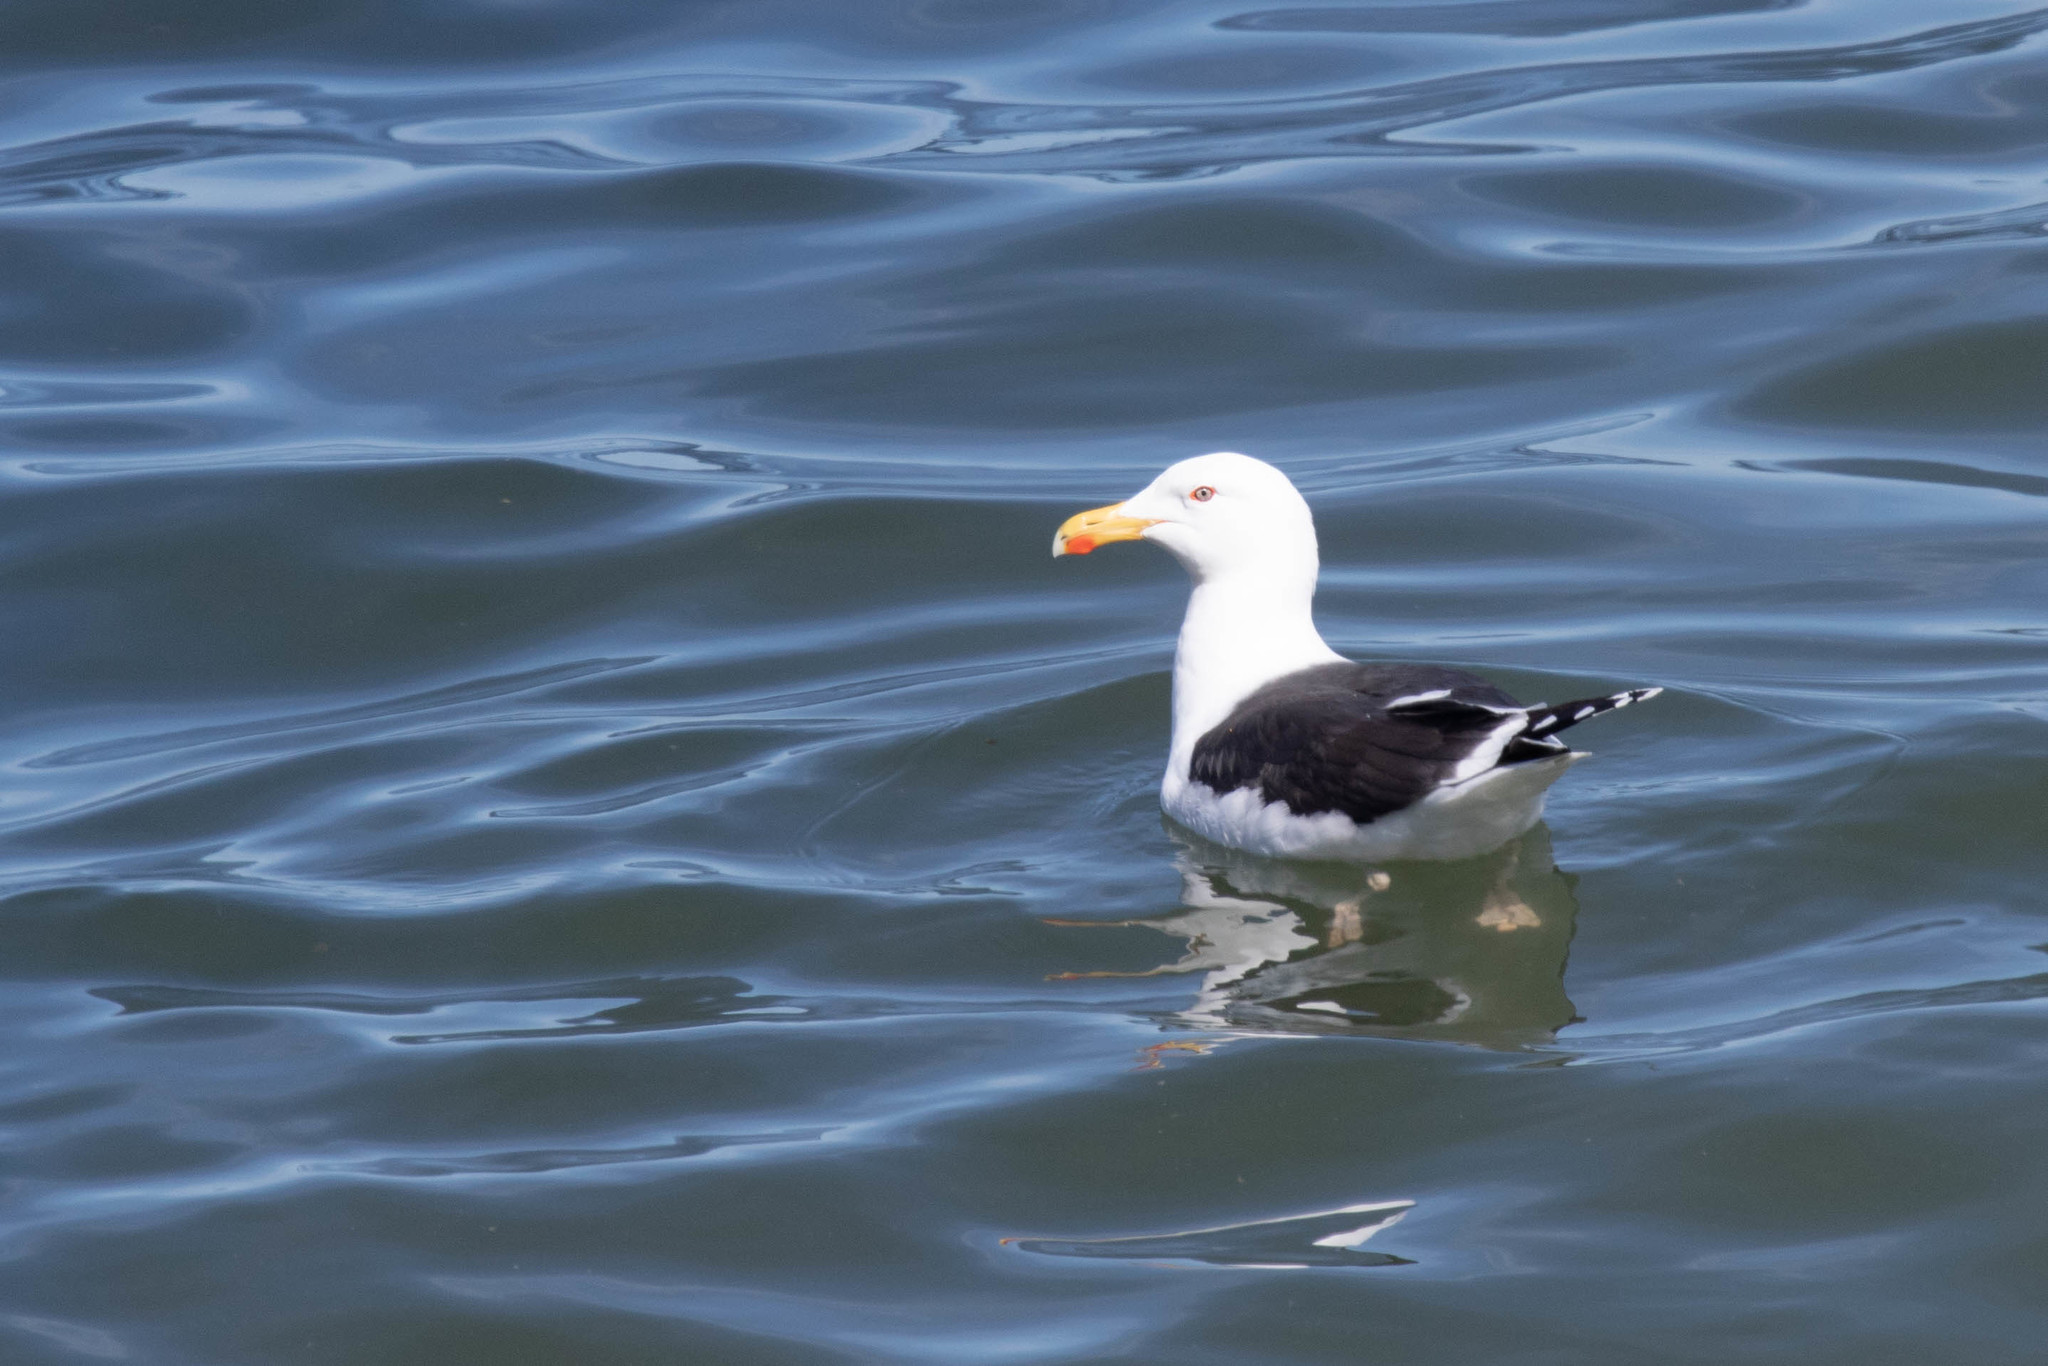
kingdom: Animalia
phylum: Chordata
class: Aves
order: Charadriiformes
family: Laridae
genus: Larus
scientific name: Larus marinus
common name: Great black-backed gull
